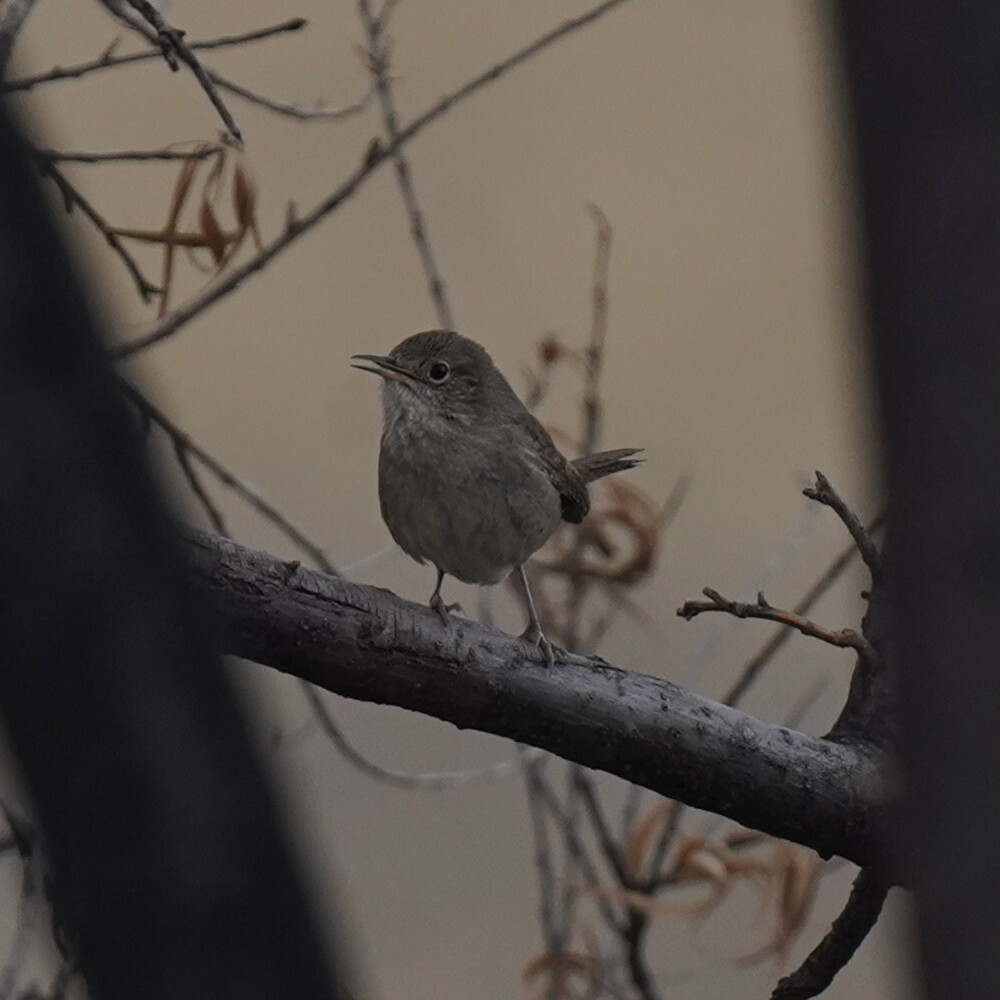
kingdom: Animalia
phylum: Chordata
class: Aves
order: Passeriformes
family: Troglodytidae
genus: Troglodytes
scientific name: Troglodytes aedon
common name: House wren
